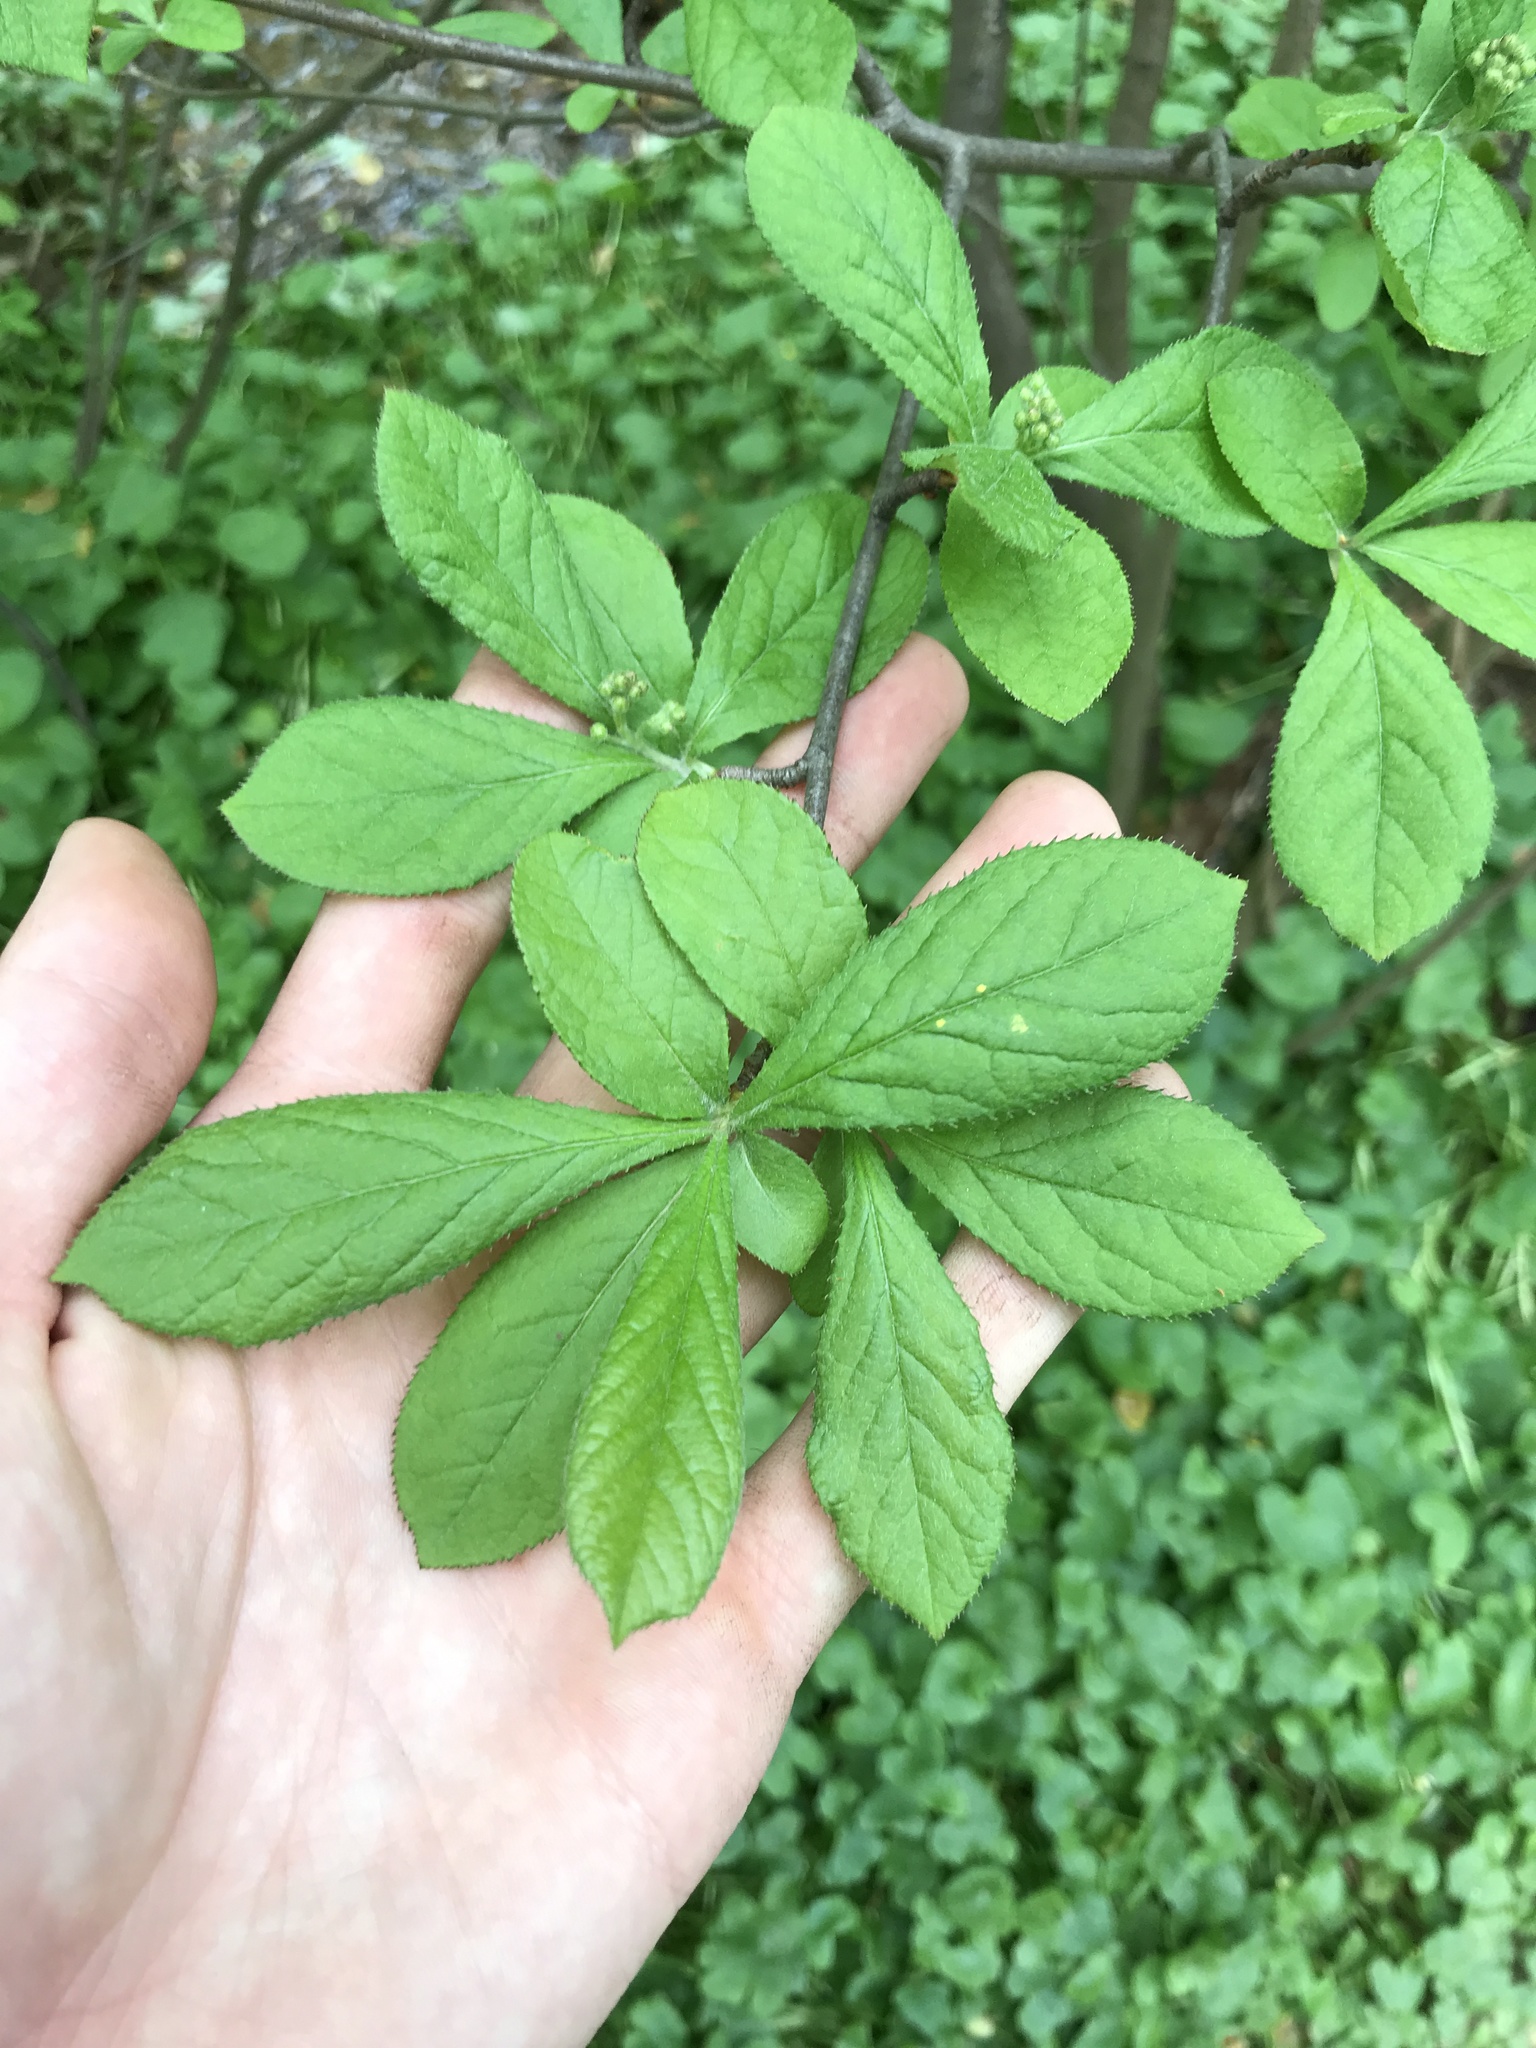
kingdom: Plantae
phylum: Tracheophyta
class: Magnoliopsida
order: Rosales
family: Rosaceae
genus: Pourthiaea
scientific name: Pourthiaea villosa
